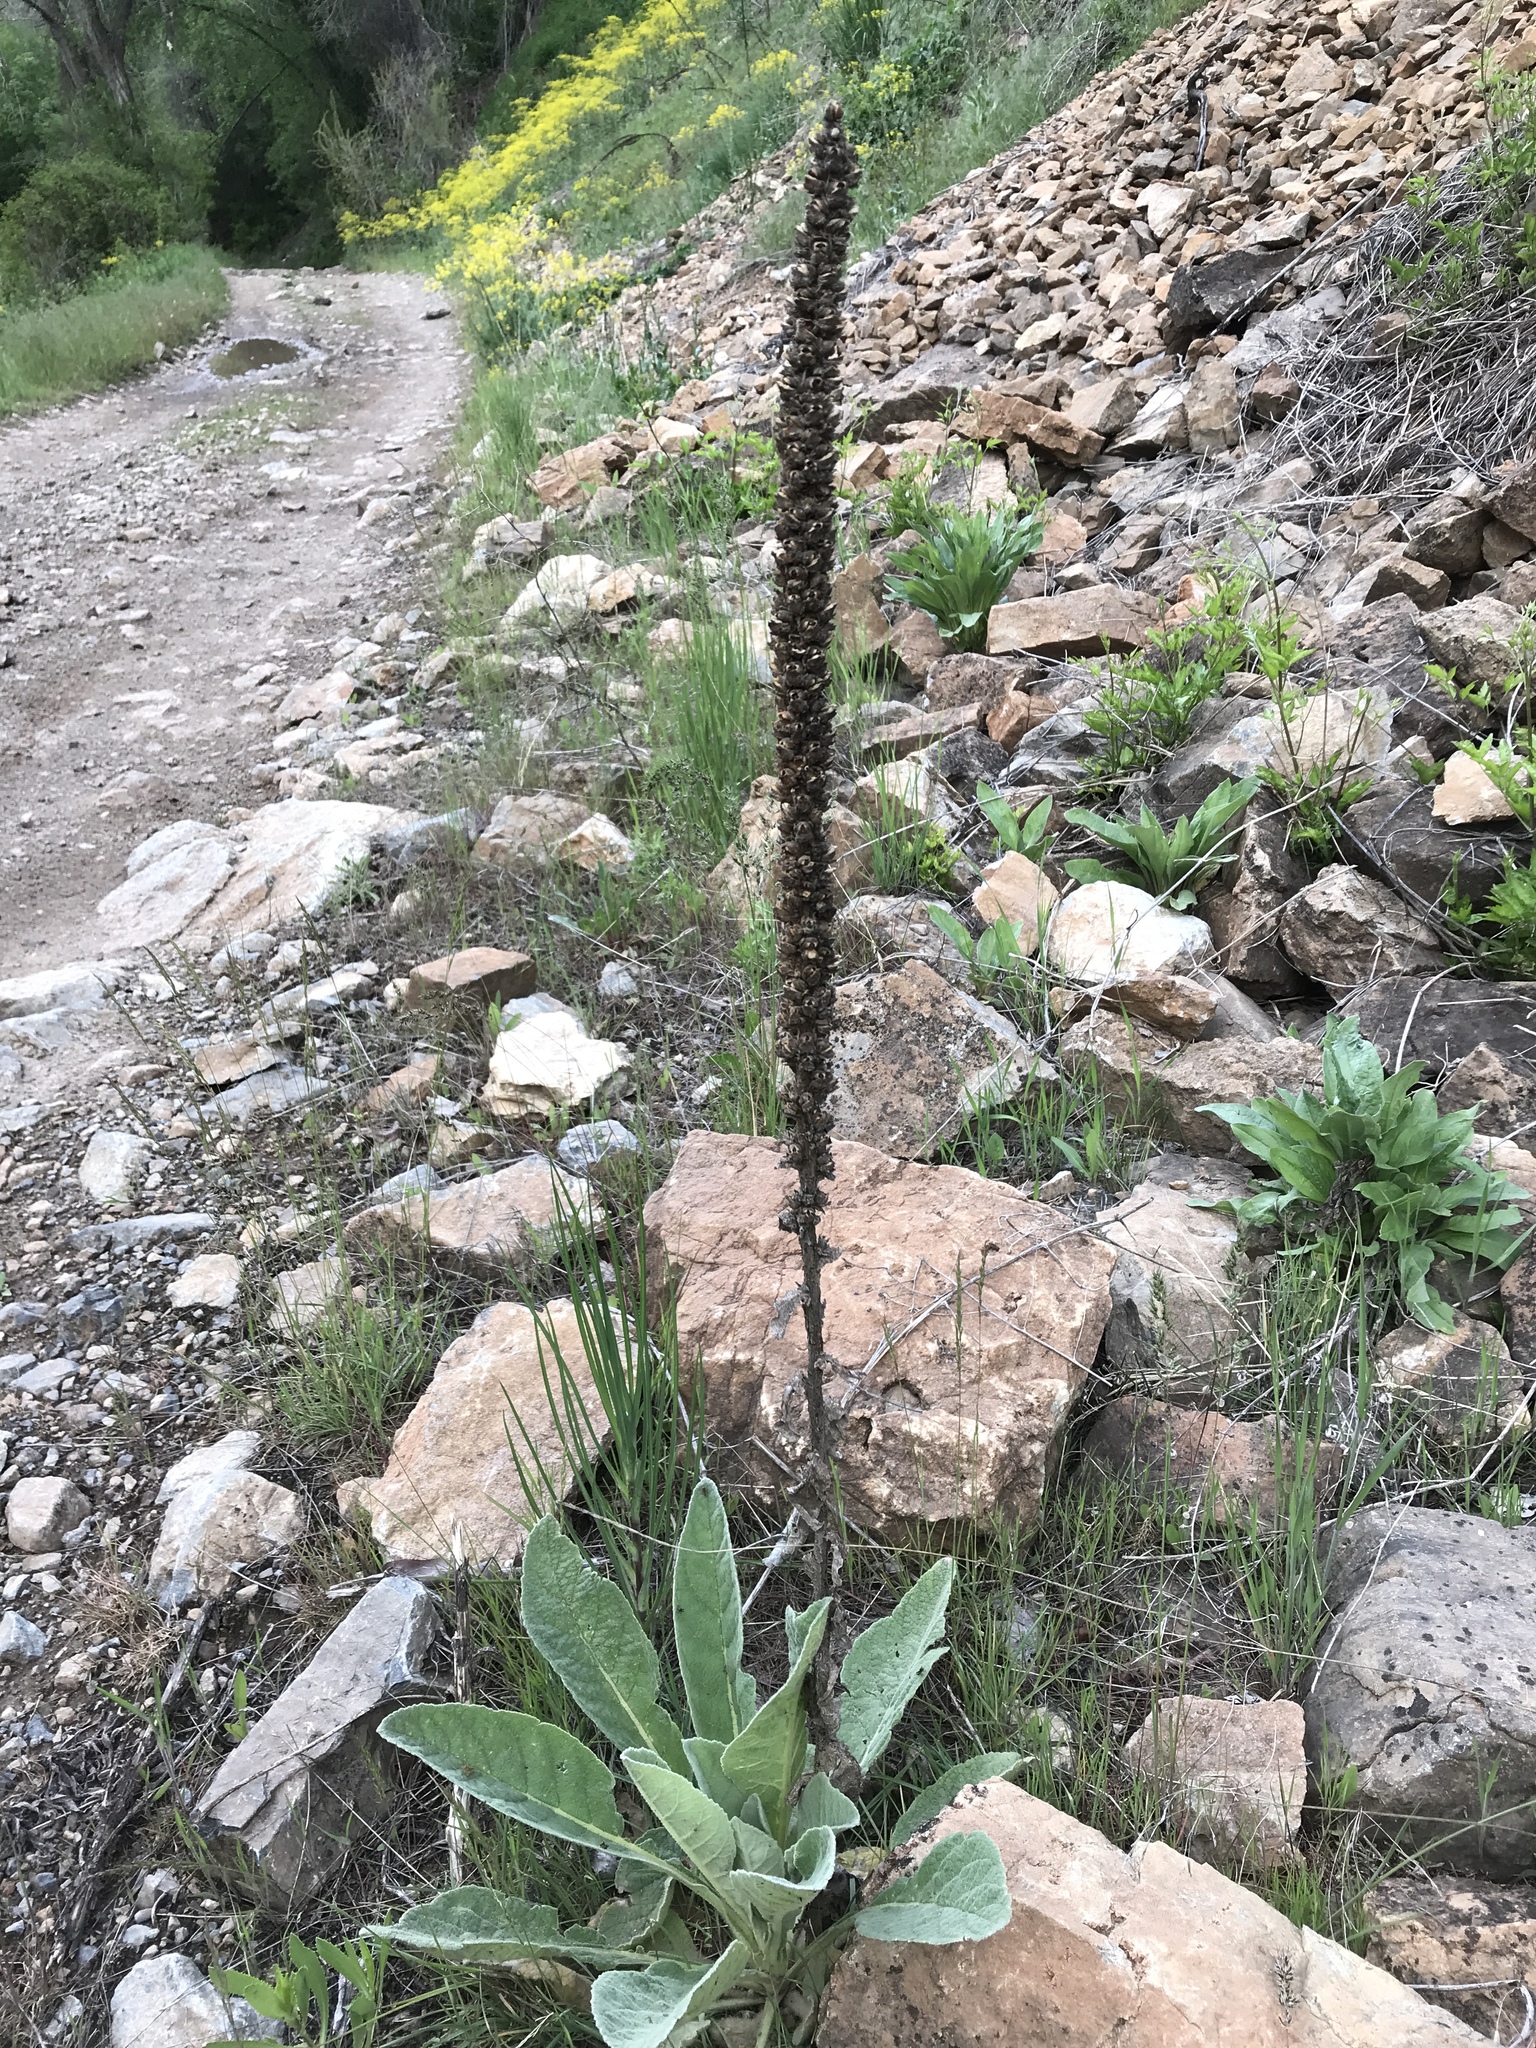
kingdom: Plantae
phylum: Tracheophyta
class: Magnoliopsida
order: Lamiales
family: Scrophulariaceae
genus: Verbascum
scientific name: Verbascum thapsus
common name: Common mullein
